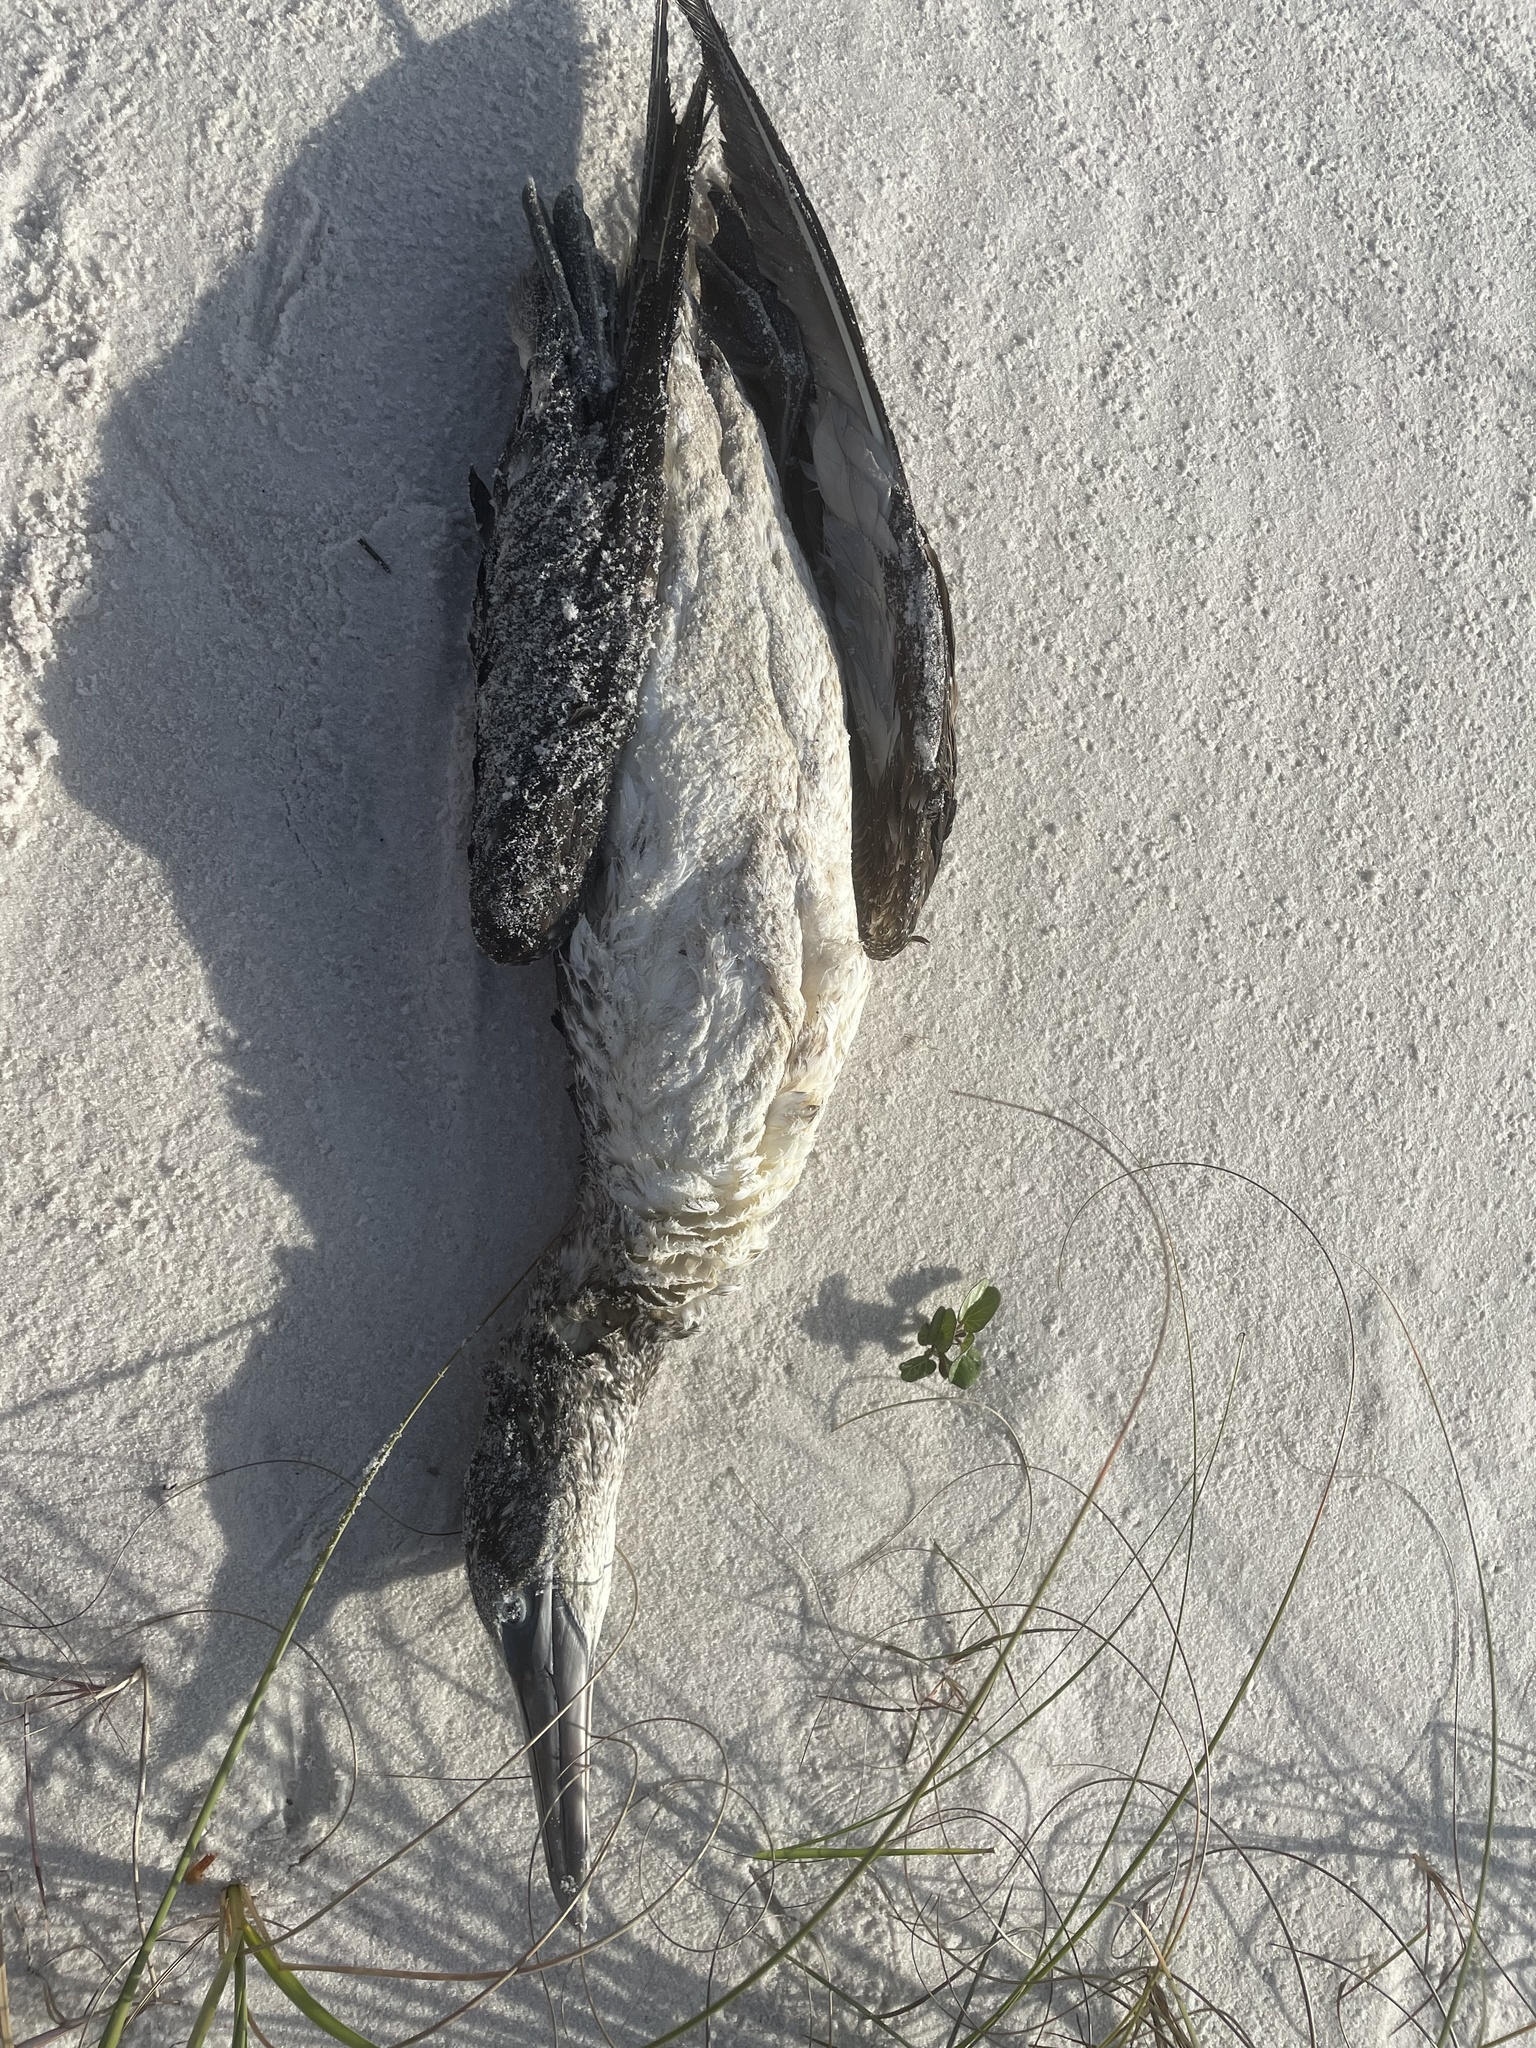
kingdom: Animalia
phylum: Chordata
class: Aves
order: Suliformes
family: Sulidae
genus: Morus
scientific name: Morus bassanus
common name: Northern gannet
